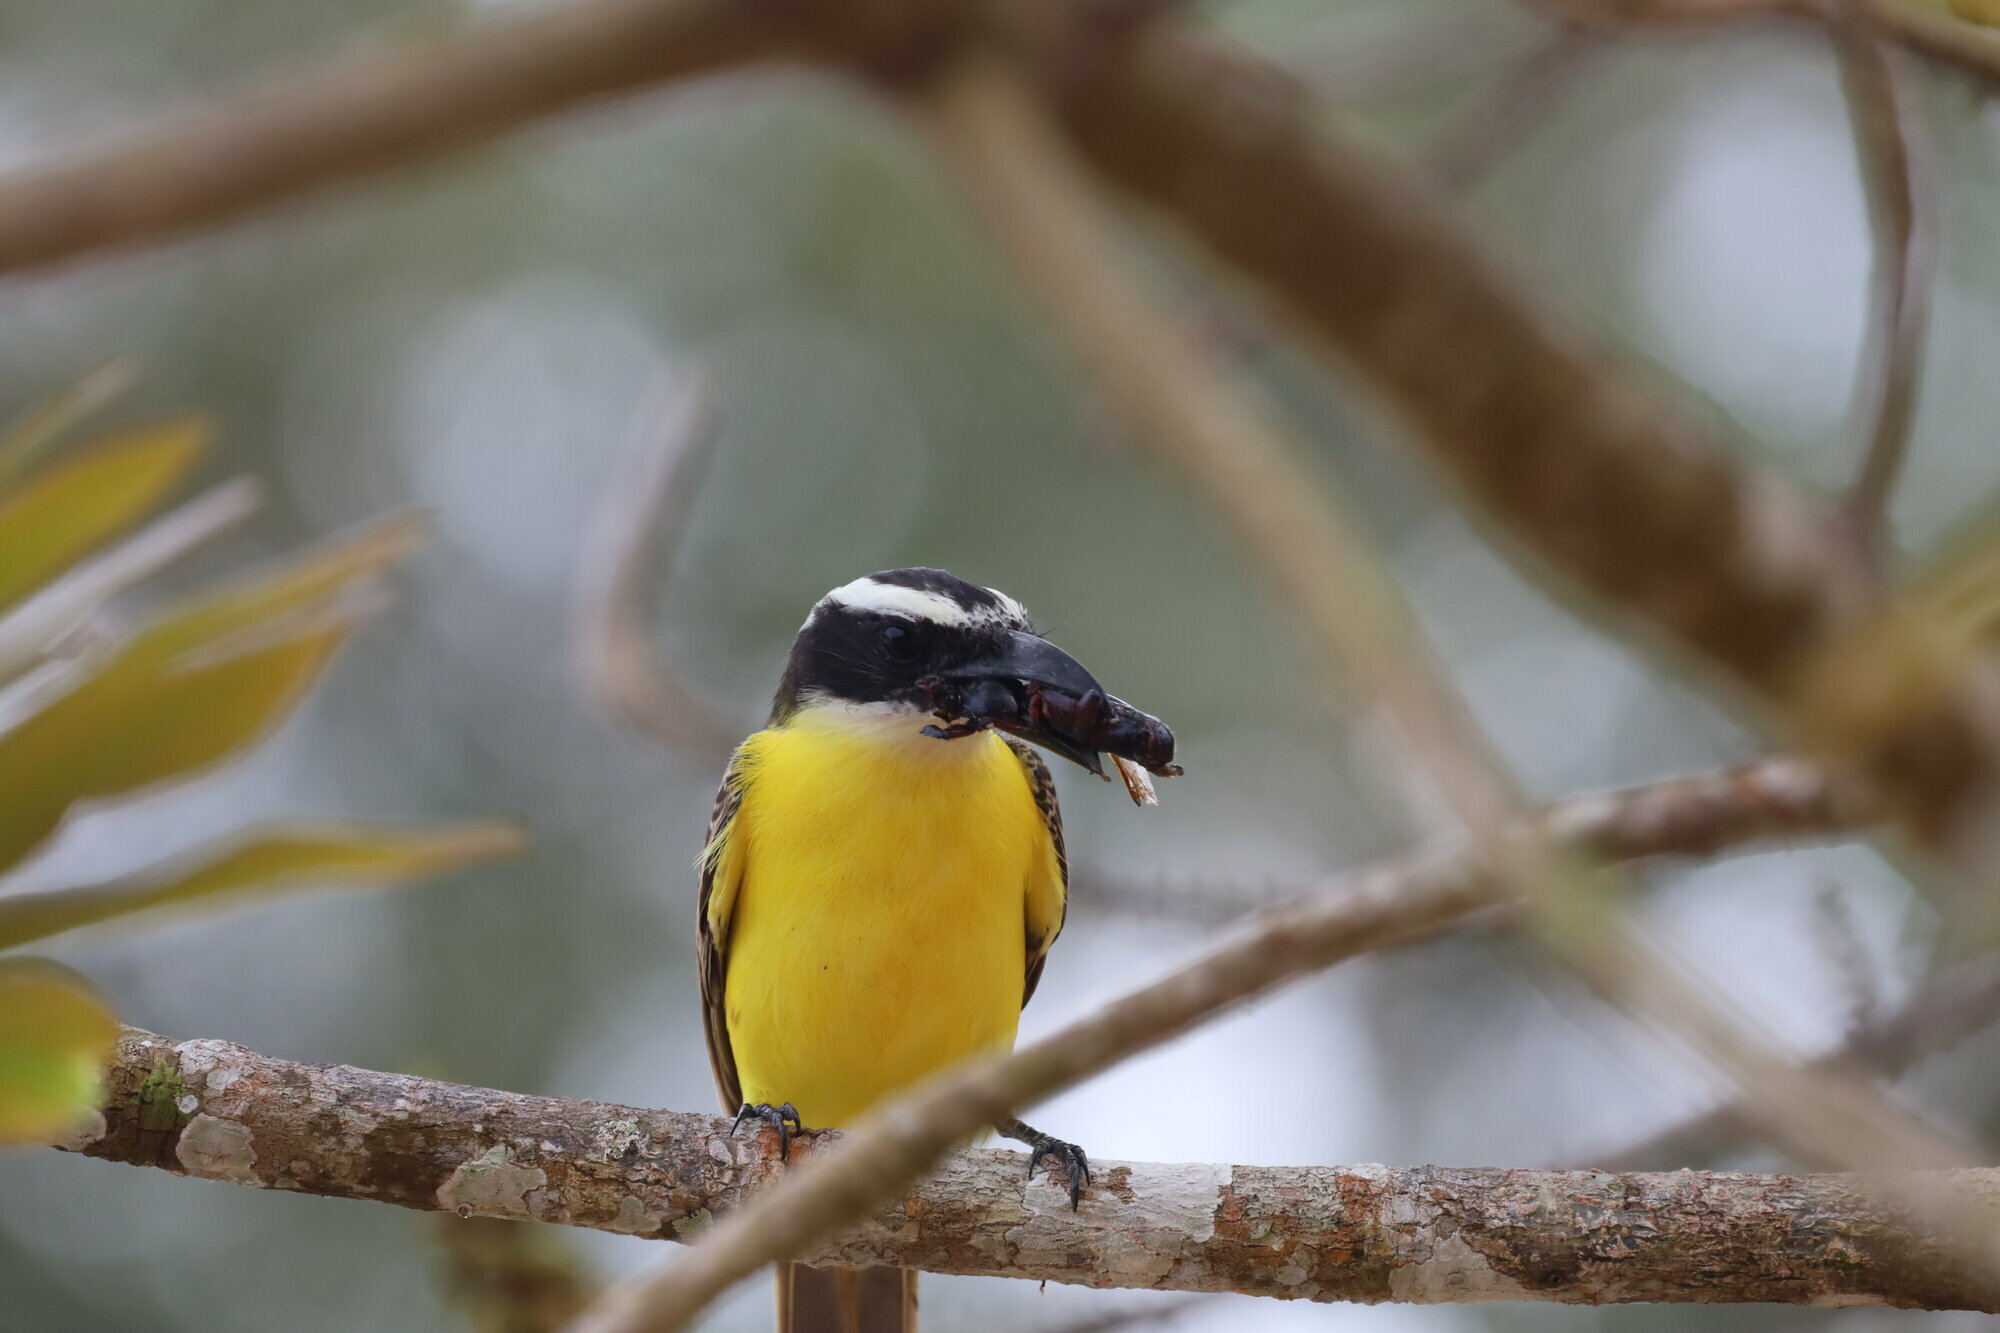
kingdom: Animalia
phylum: Chordata
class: Aves
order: Passeriformes
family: Tyrannidae
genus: Megarynchus
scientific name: Megarynchus pitangua
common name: Boat-billed flycatcher
